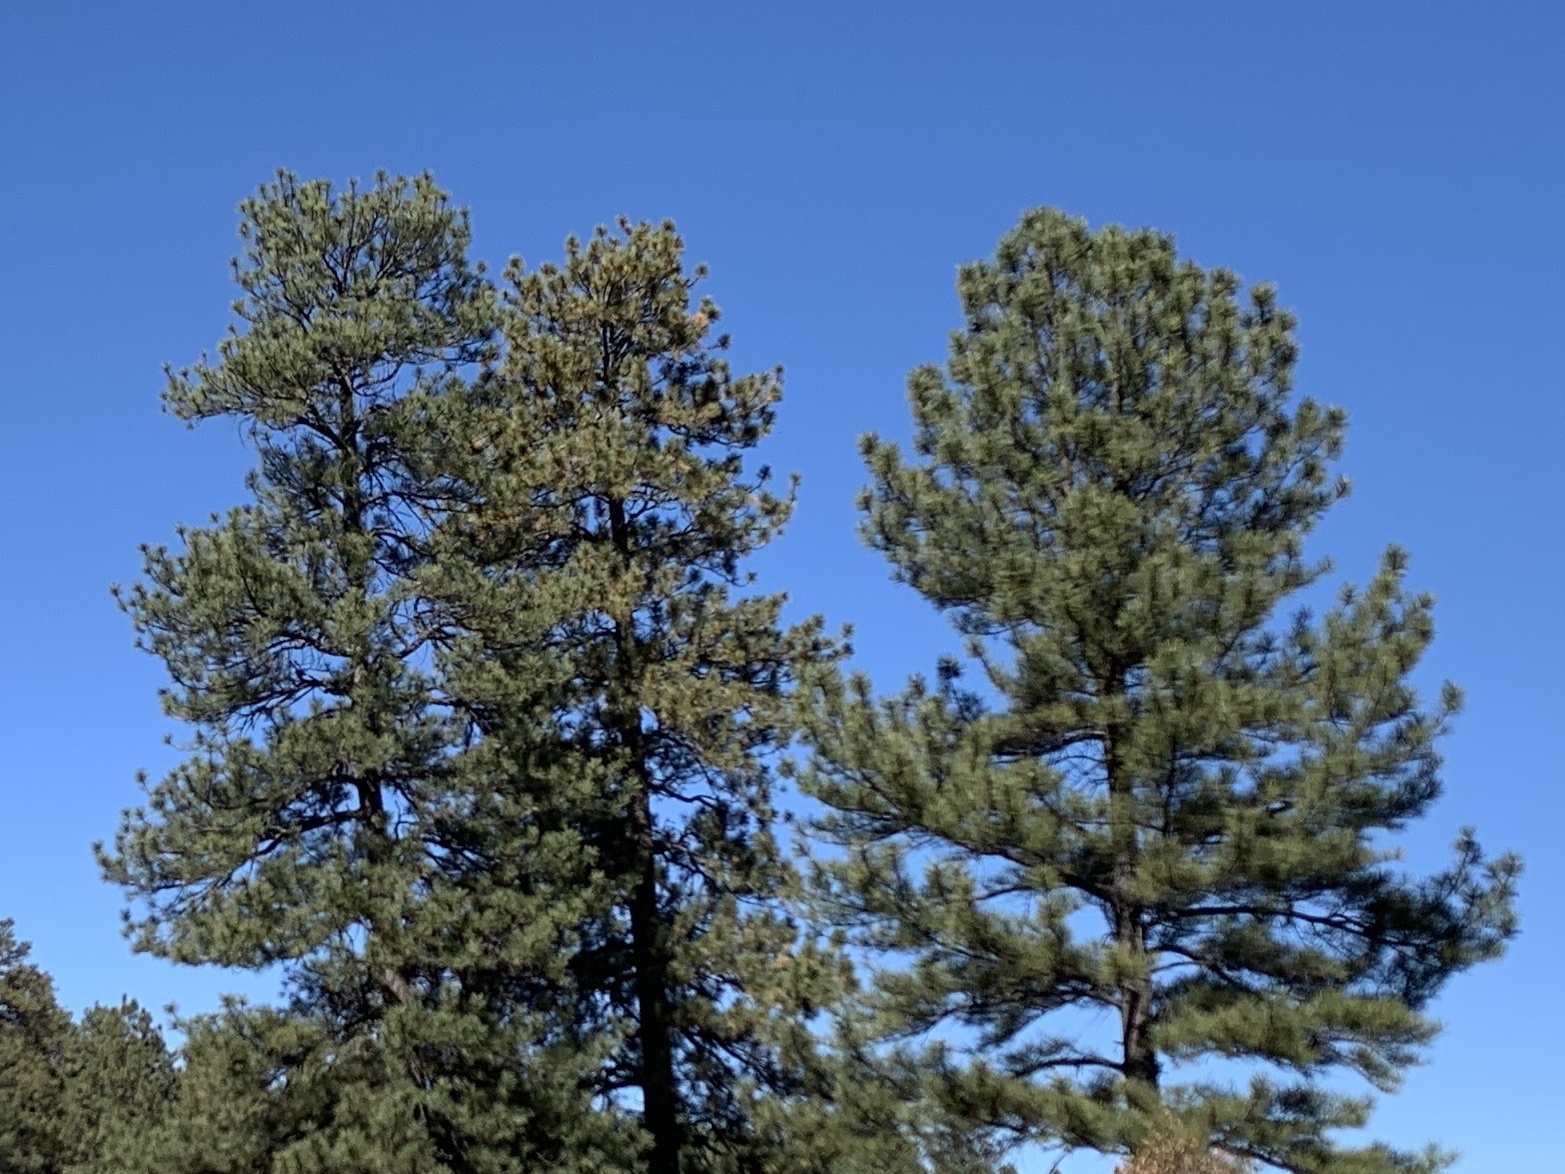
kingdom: Plantae
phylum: Tracheophyta
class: Pinopsida
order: Pinales
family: Pinaceae
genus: Pinus
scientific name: Pinus ponderosa
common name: Western yellow-pine
